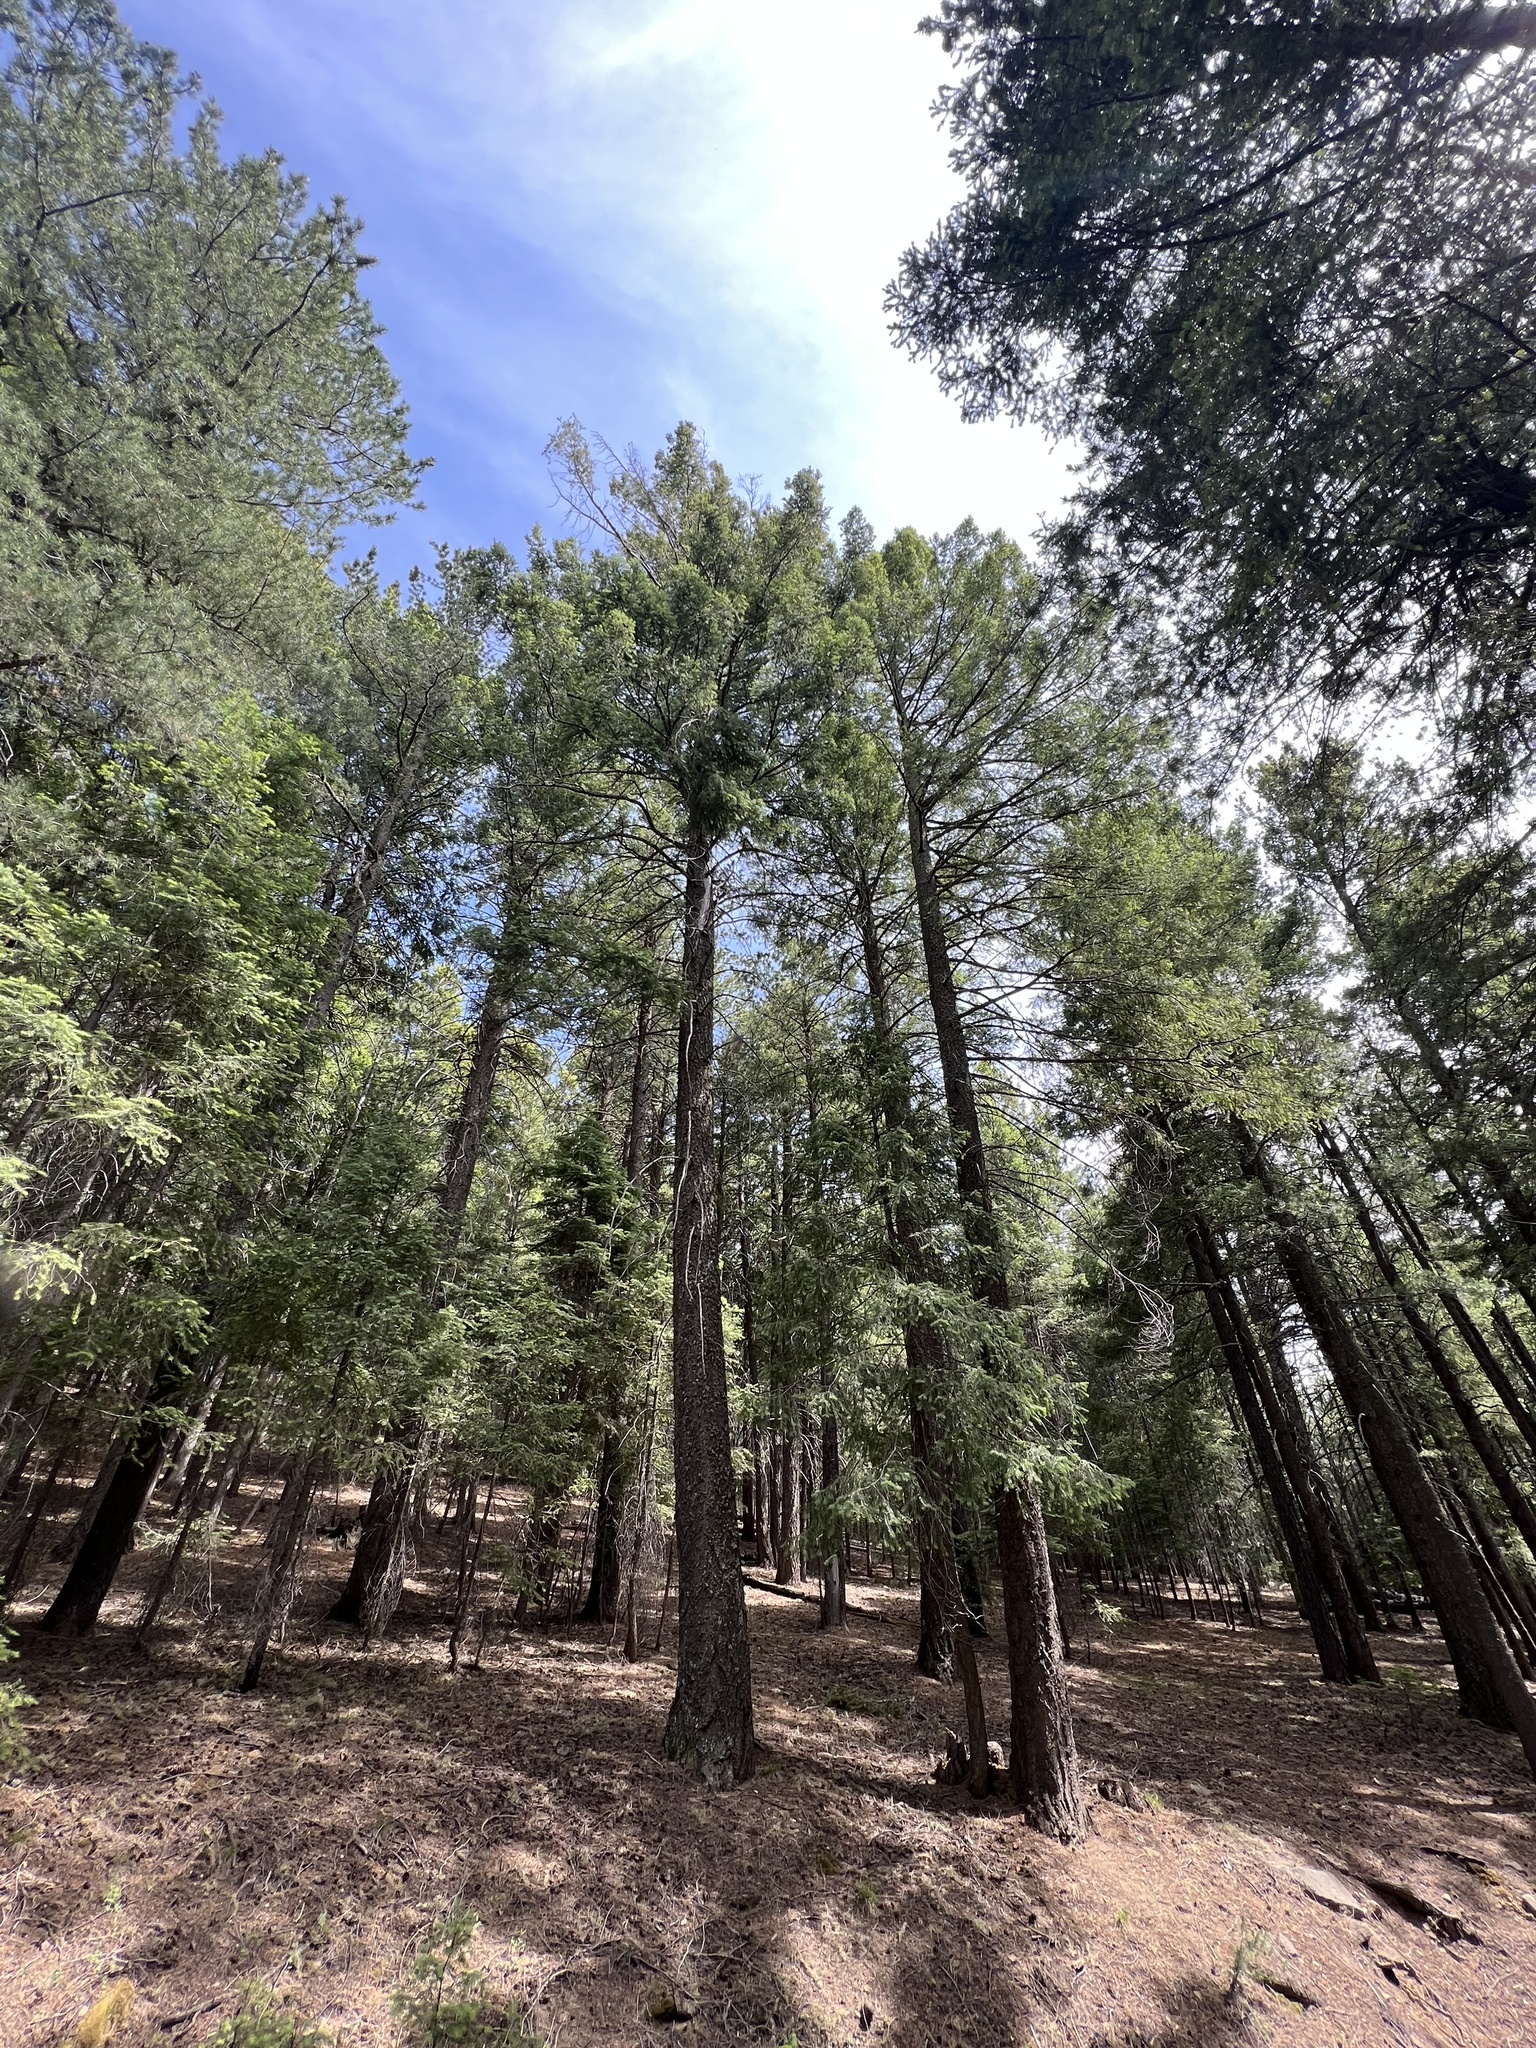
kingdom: Plantae
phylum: Tracheophyta
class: Pinopsida
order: Pinales
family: Pinaceae
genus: Pseudotsuga
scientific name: Pseudotsuga menziesii
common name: Douglas fir
